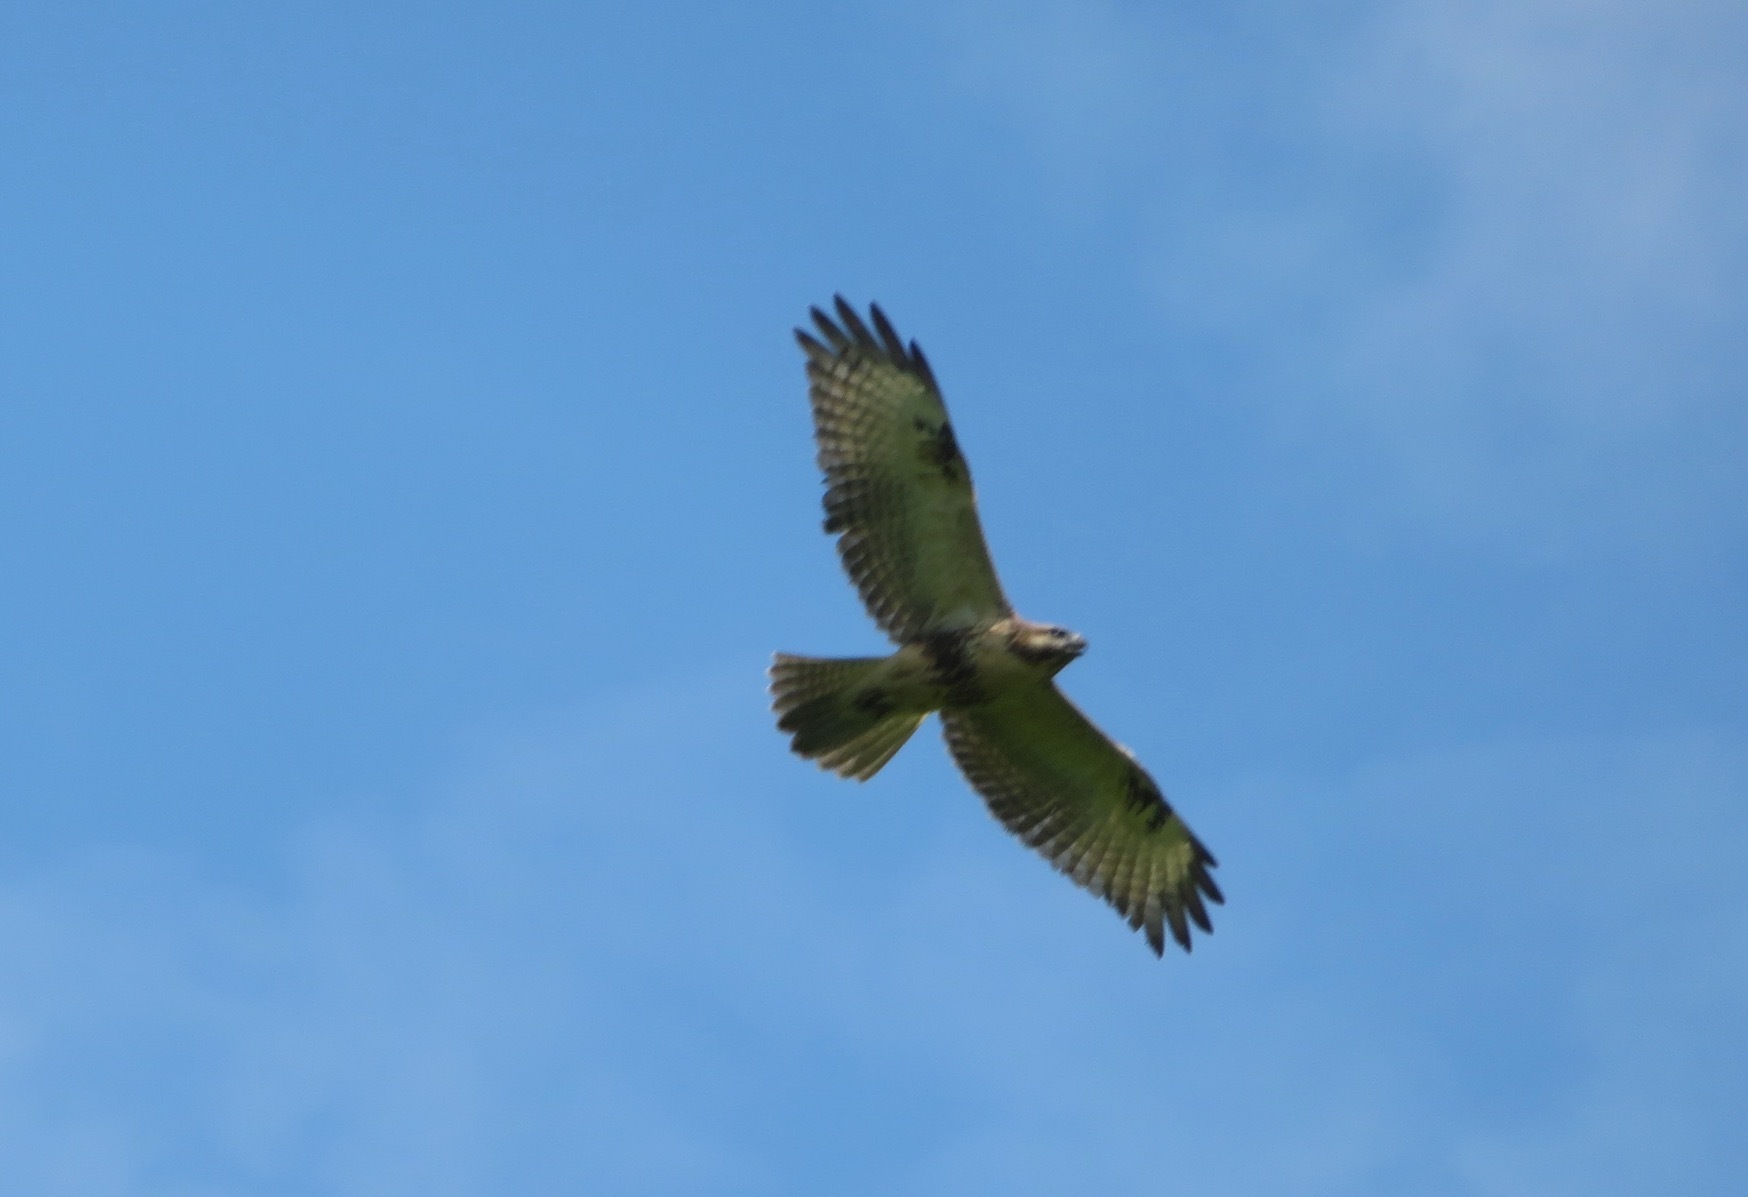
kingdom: Animalia
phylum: Chordata
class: Aves
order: Accipitriformes
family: Accipitridae
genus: Buteo
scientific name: Buteo japonicus
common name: Eastern buzzard
